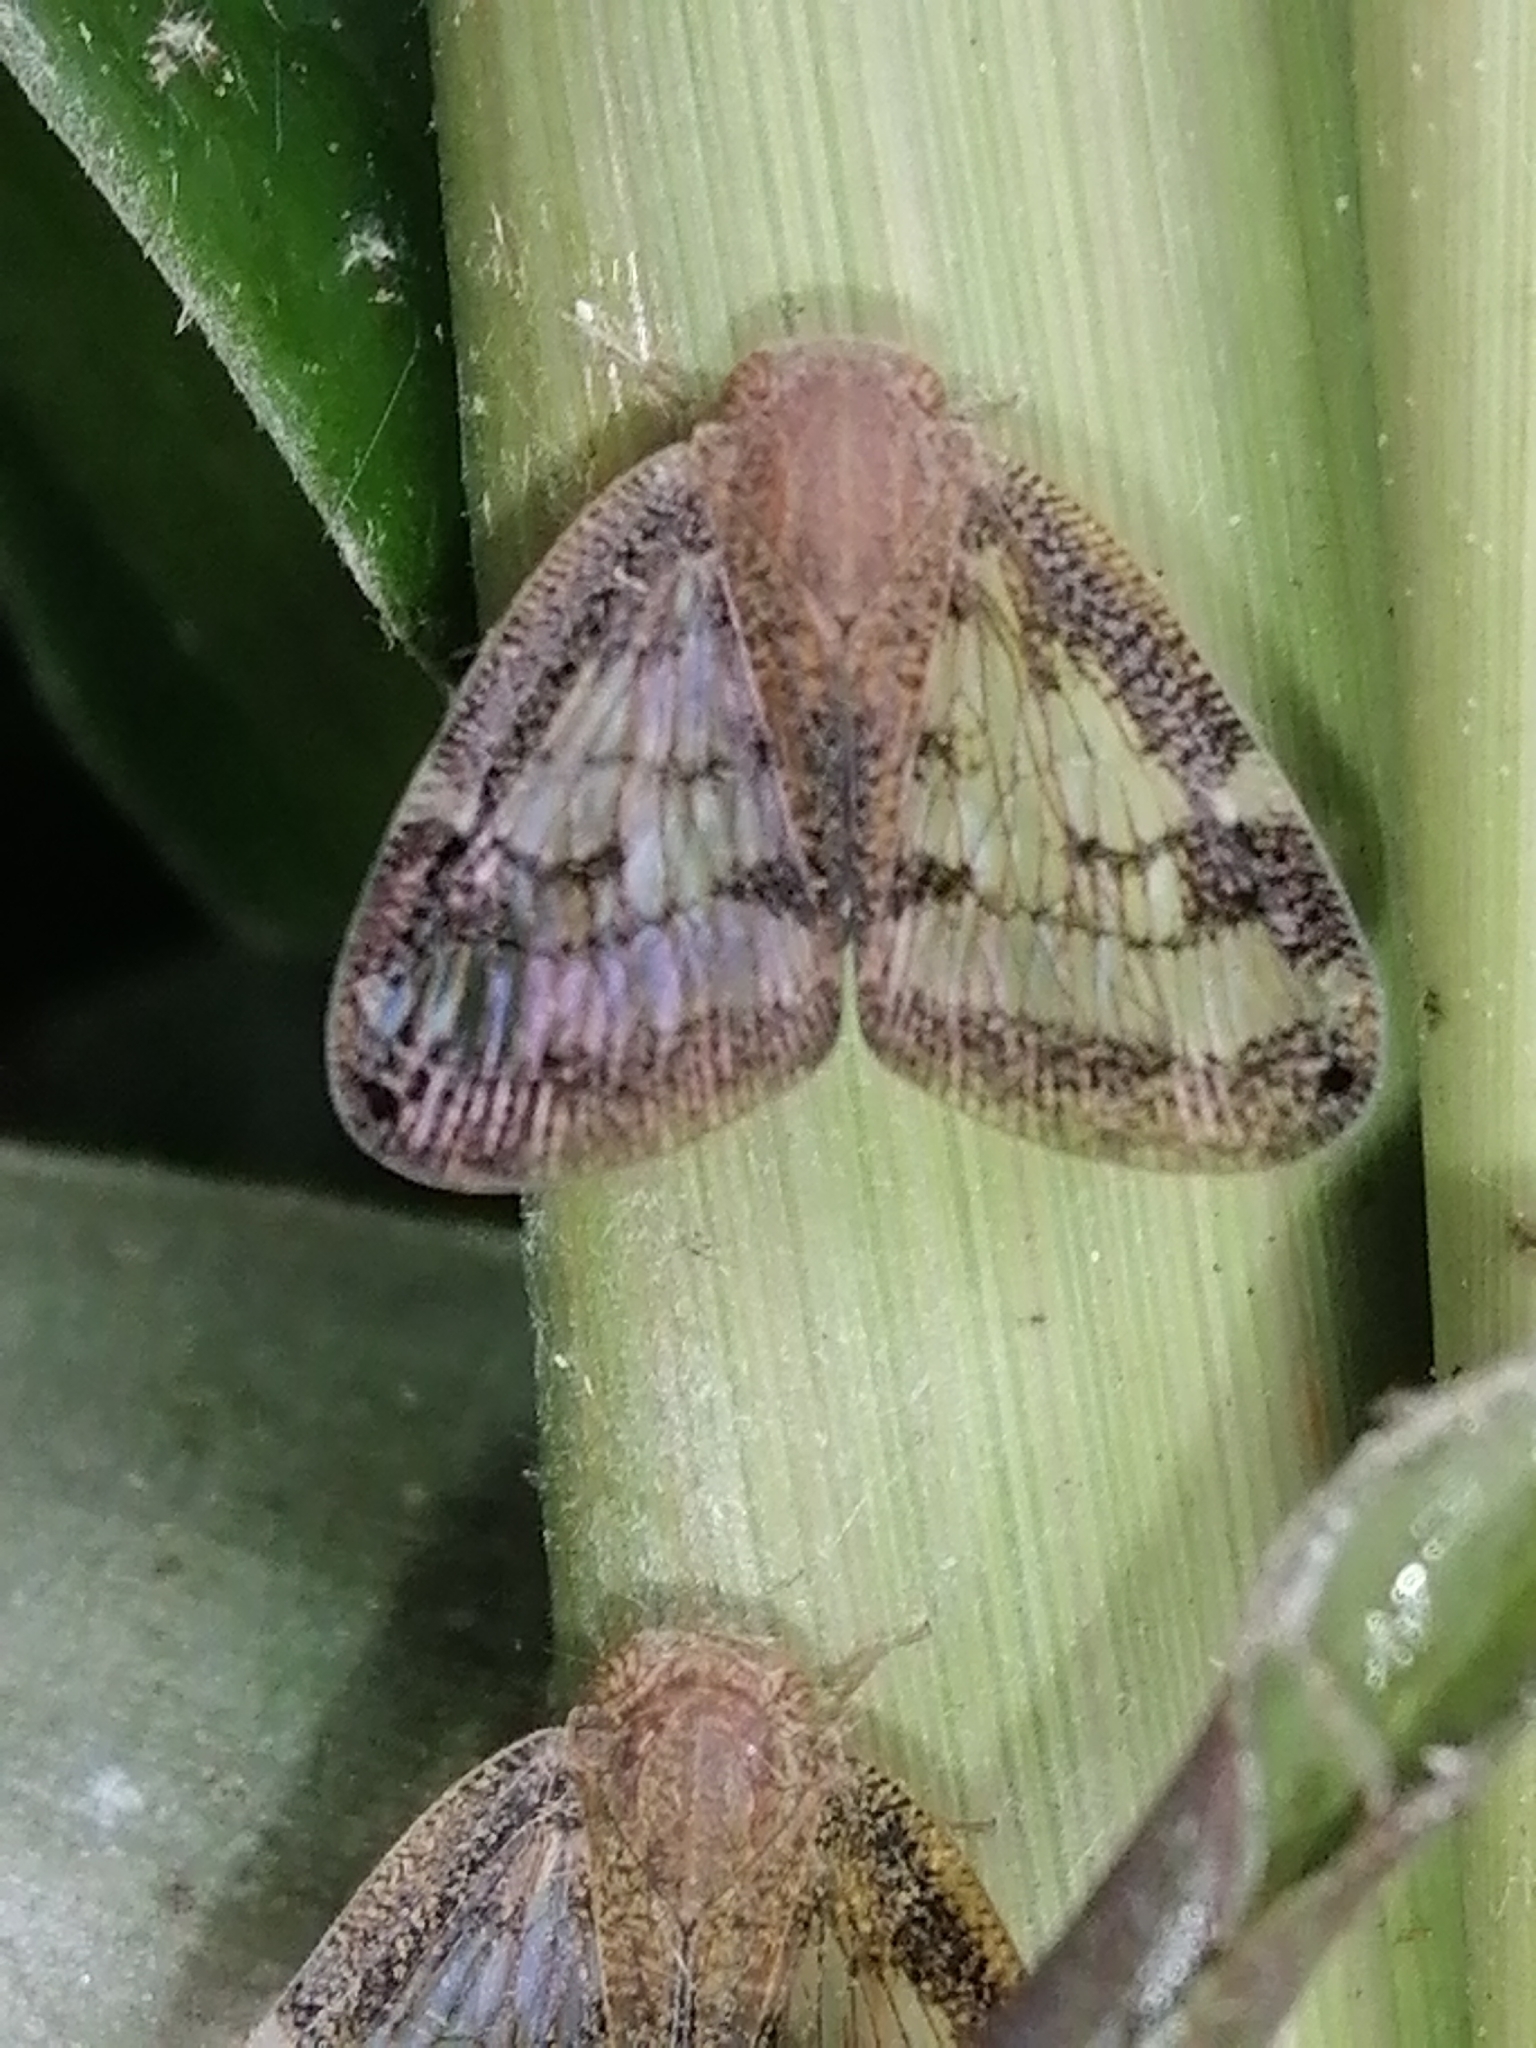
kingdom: Animalia
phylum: Arthropoda
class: Insecta
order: Hemiptera
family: Ricaniidae
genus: Scolypopa
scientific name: Scolypopa australis
